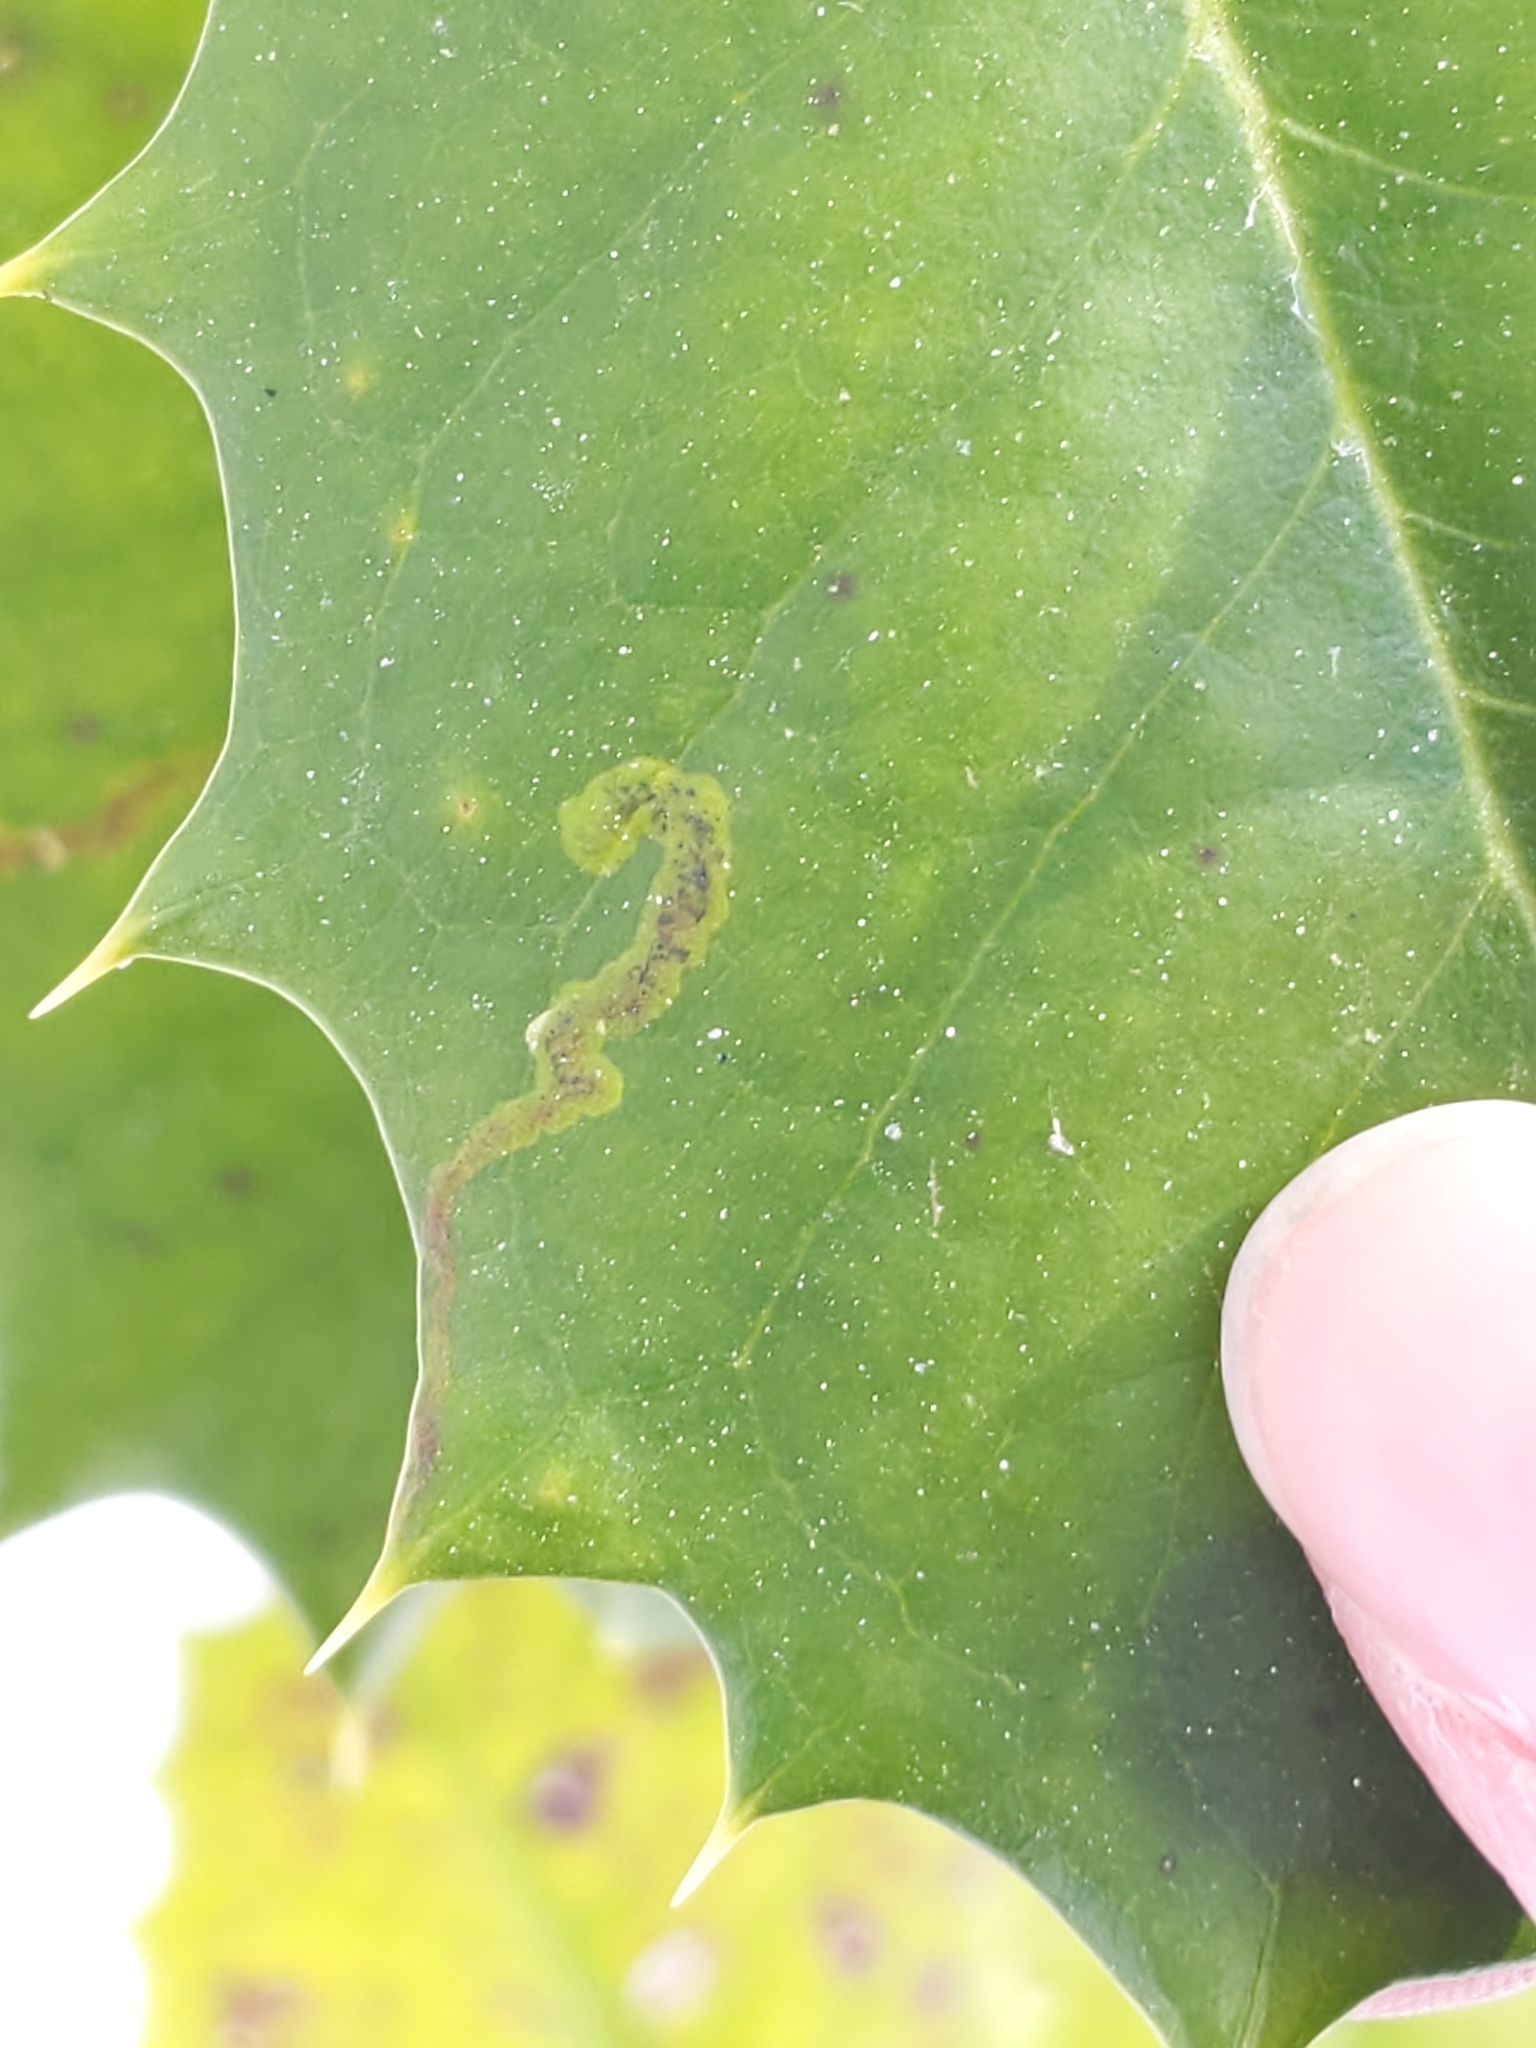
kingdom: Animalia
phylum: Arthropoda
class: Insecta
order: Diptera
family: Agromyzidae
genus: Phytomyza
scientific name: Phytomyza ilicicola
